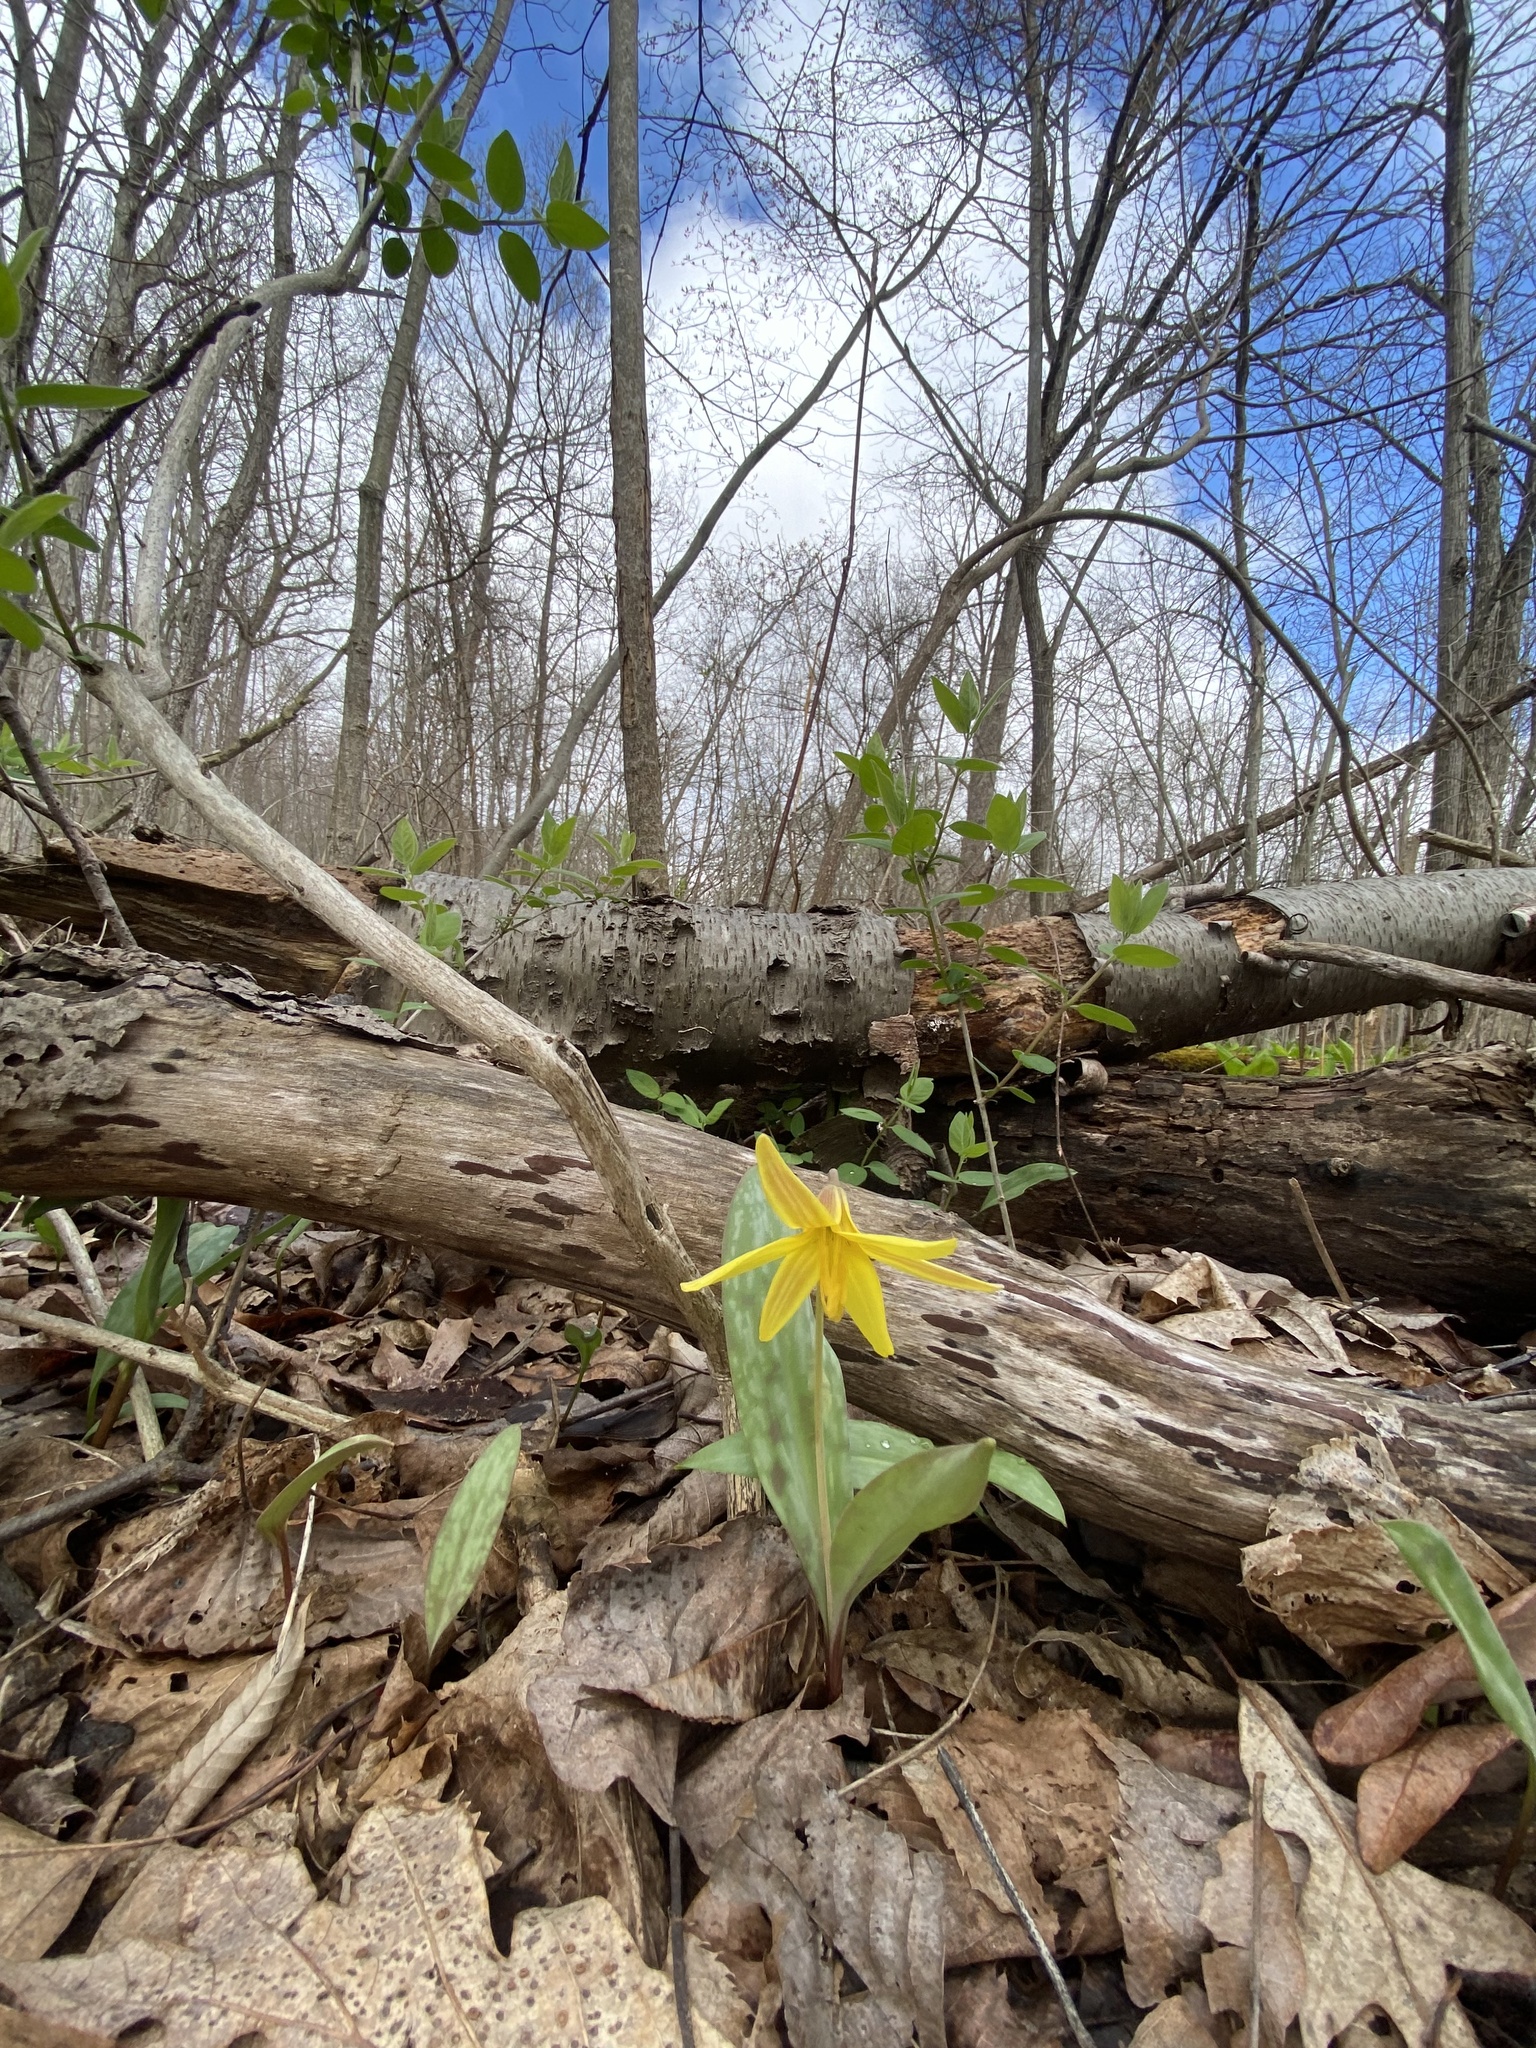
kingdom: Plantae
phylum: Tracheophyta
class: Liliopsida
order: Liliales
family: Liliaceae
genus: Erythronium
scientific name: Erythronium americanum
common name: Yellow adder's-tongue
